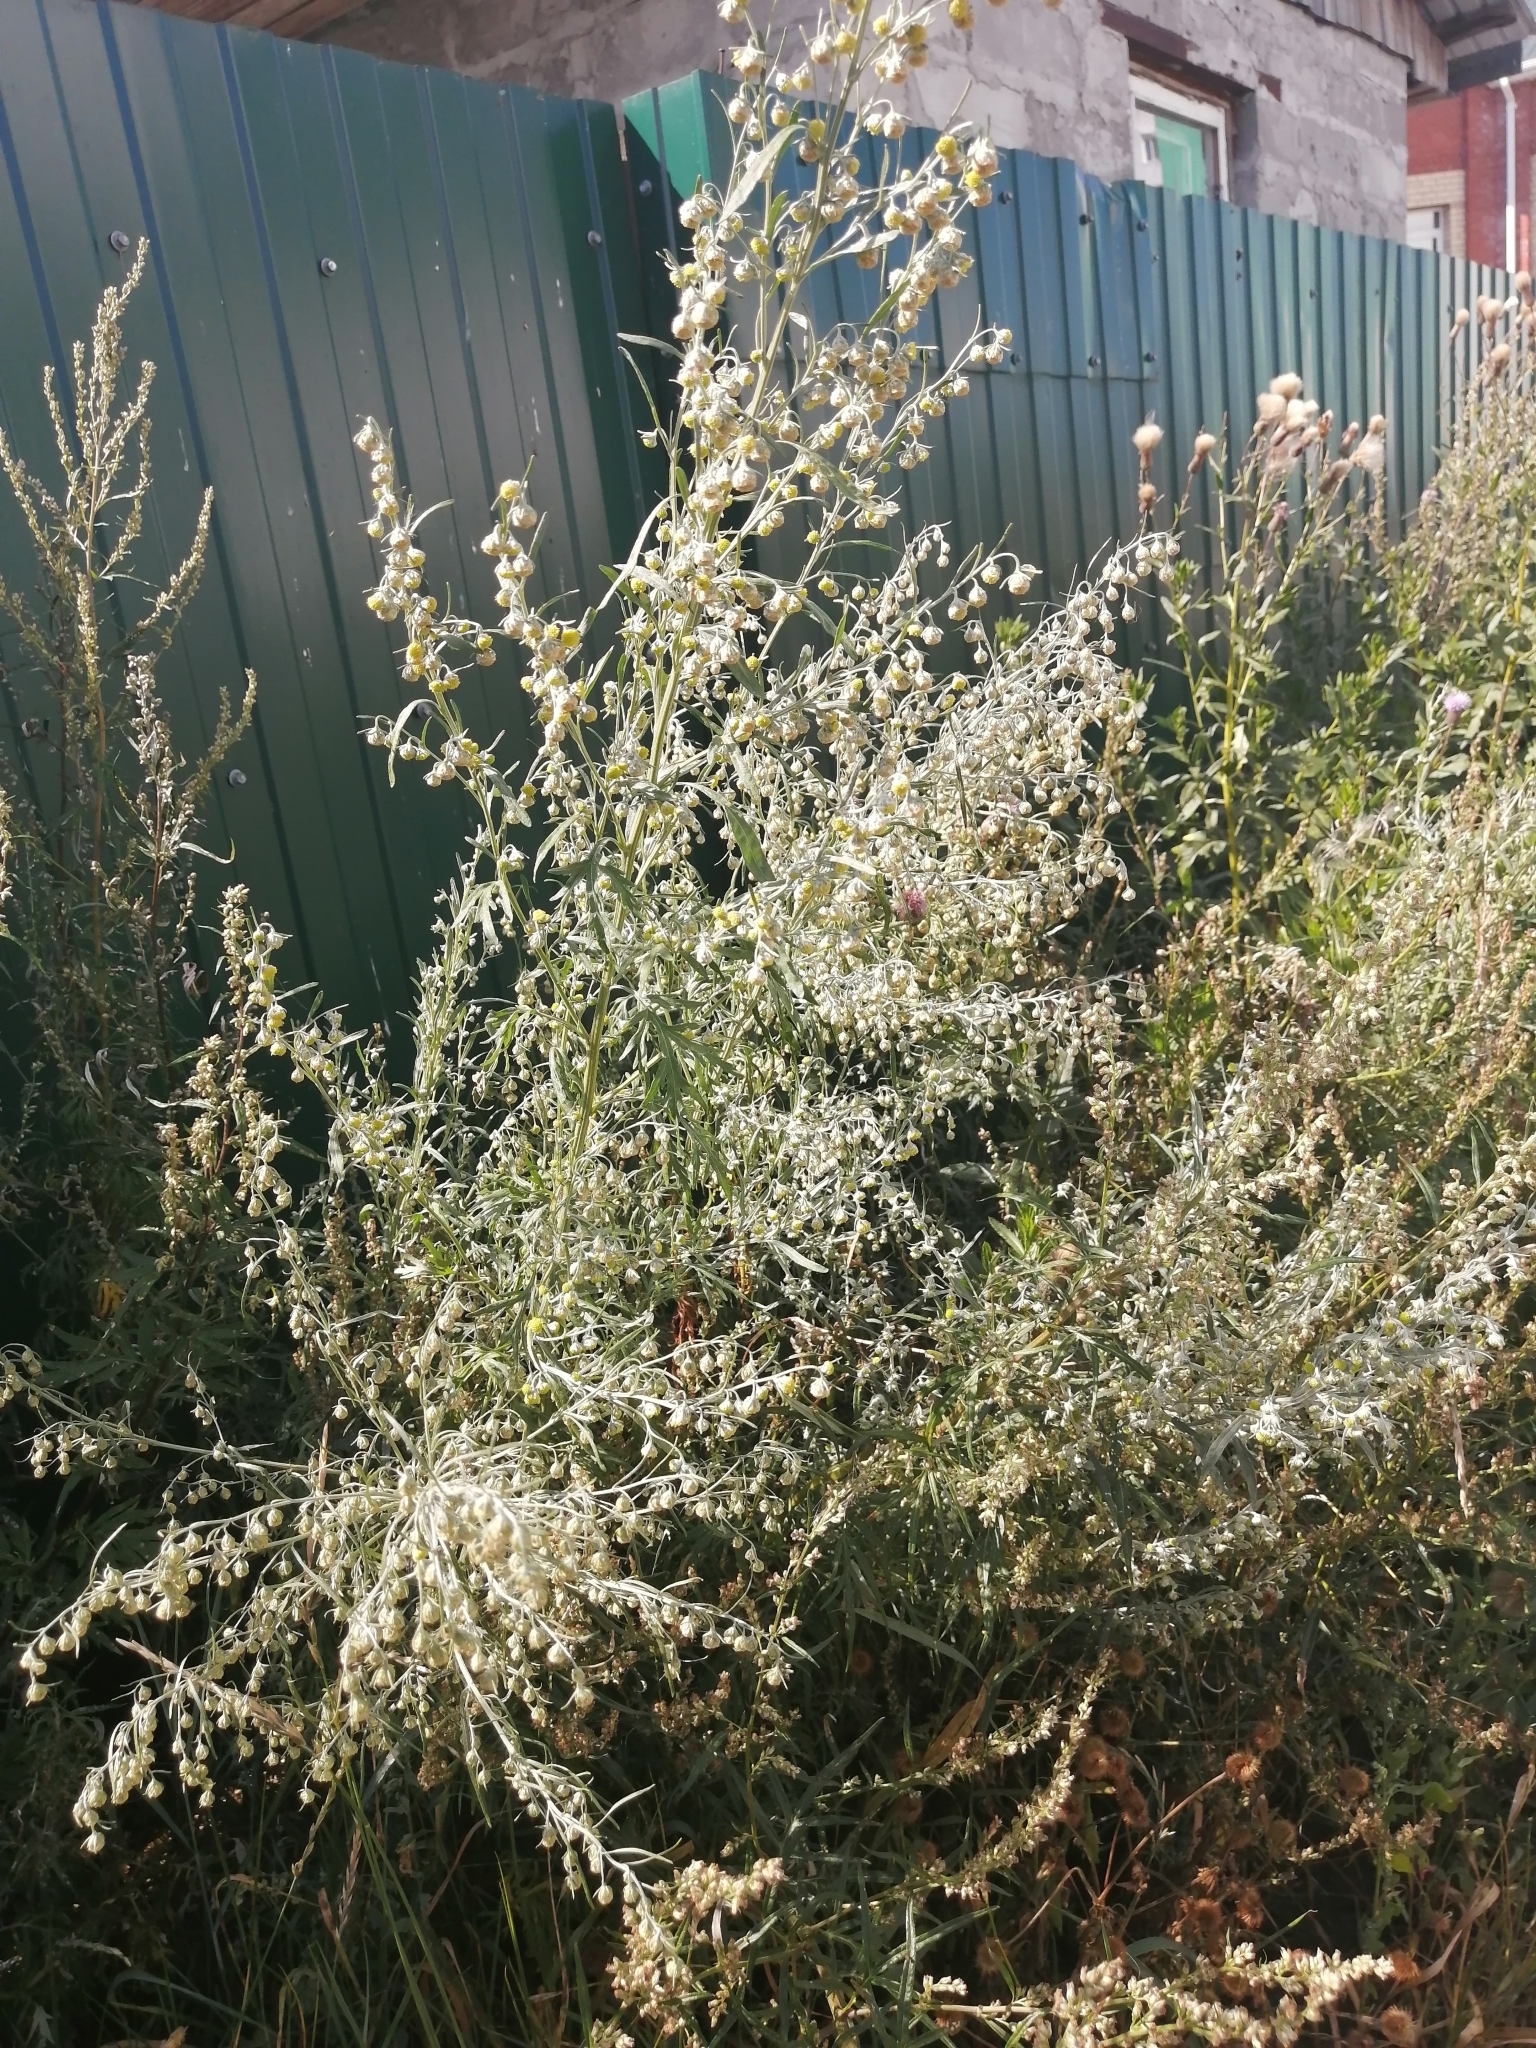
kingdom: Plantae
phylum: Tracheophyta
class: Magnoliopsida
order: Asterales
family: Asteraceae
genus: Artemisia
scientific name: Artemisia absinthium
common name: Wormwood
